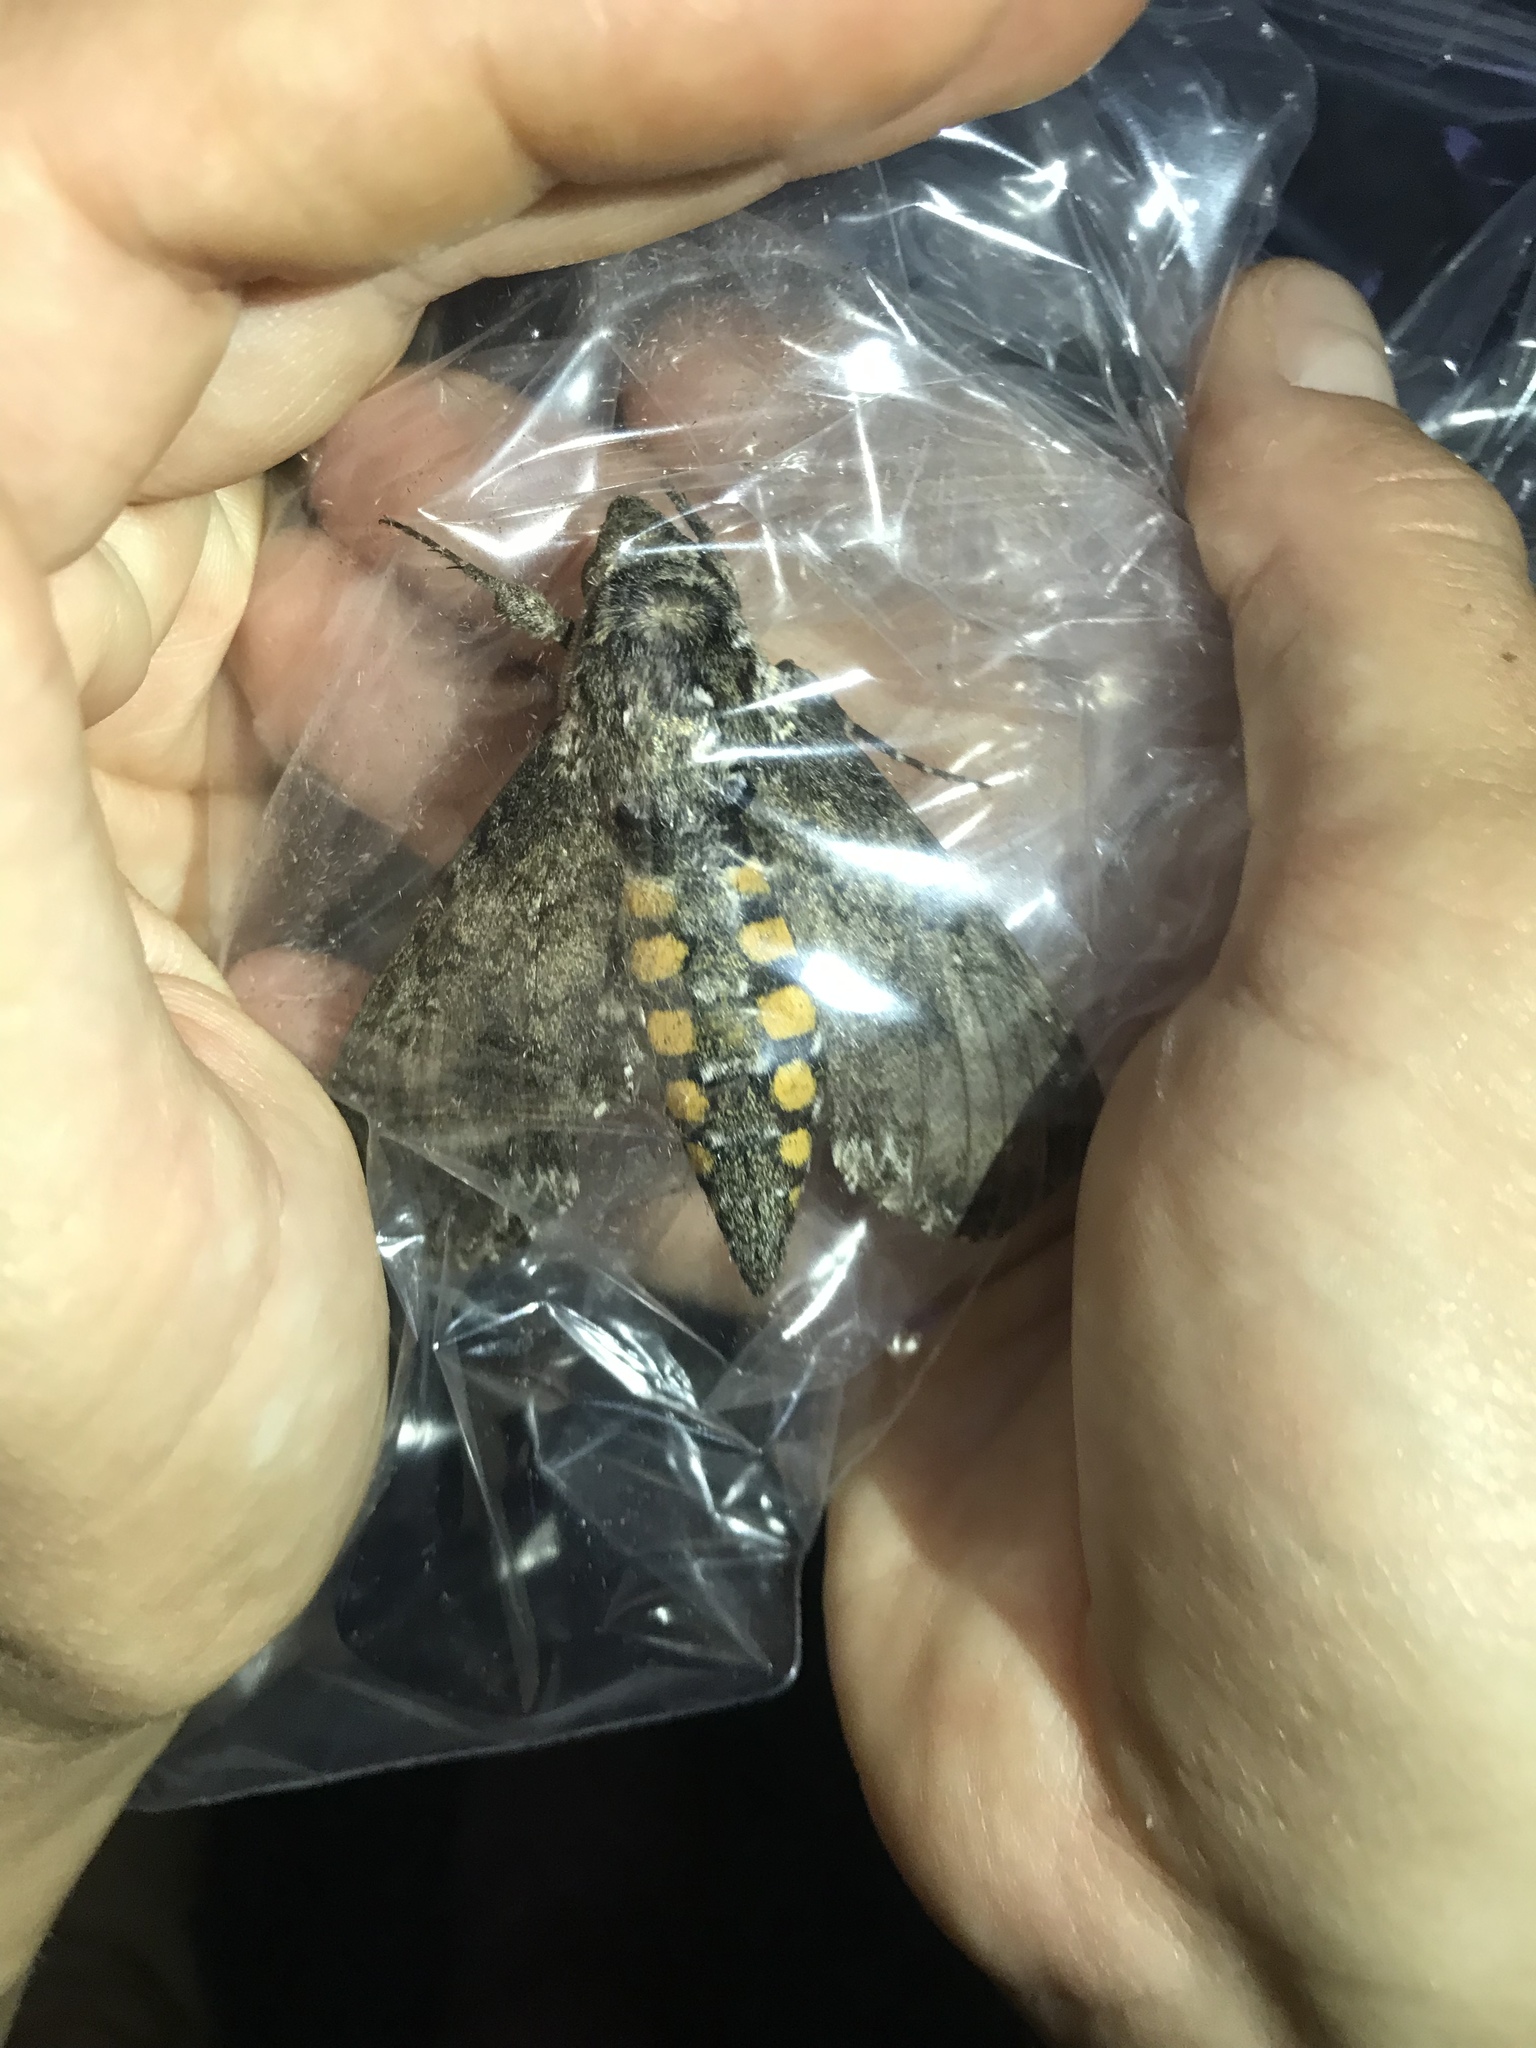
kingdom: Animalia
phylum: Arthropoda
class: Insecta
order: Lepidoptera
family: Sphingidae
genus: Manduca
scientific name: Manduca sexta
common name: Carolina sphinx
